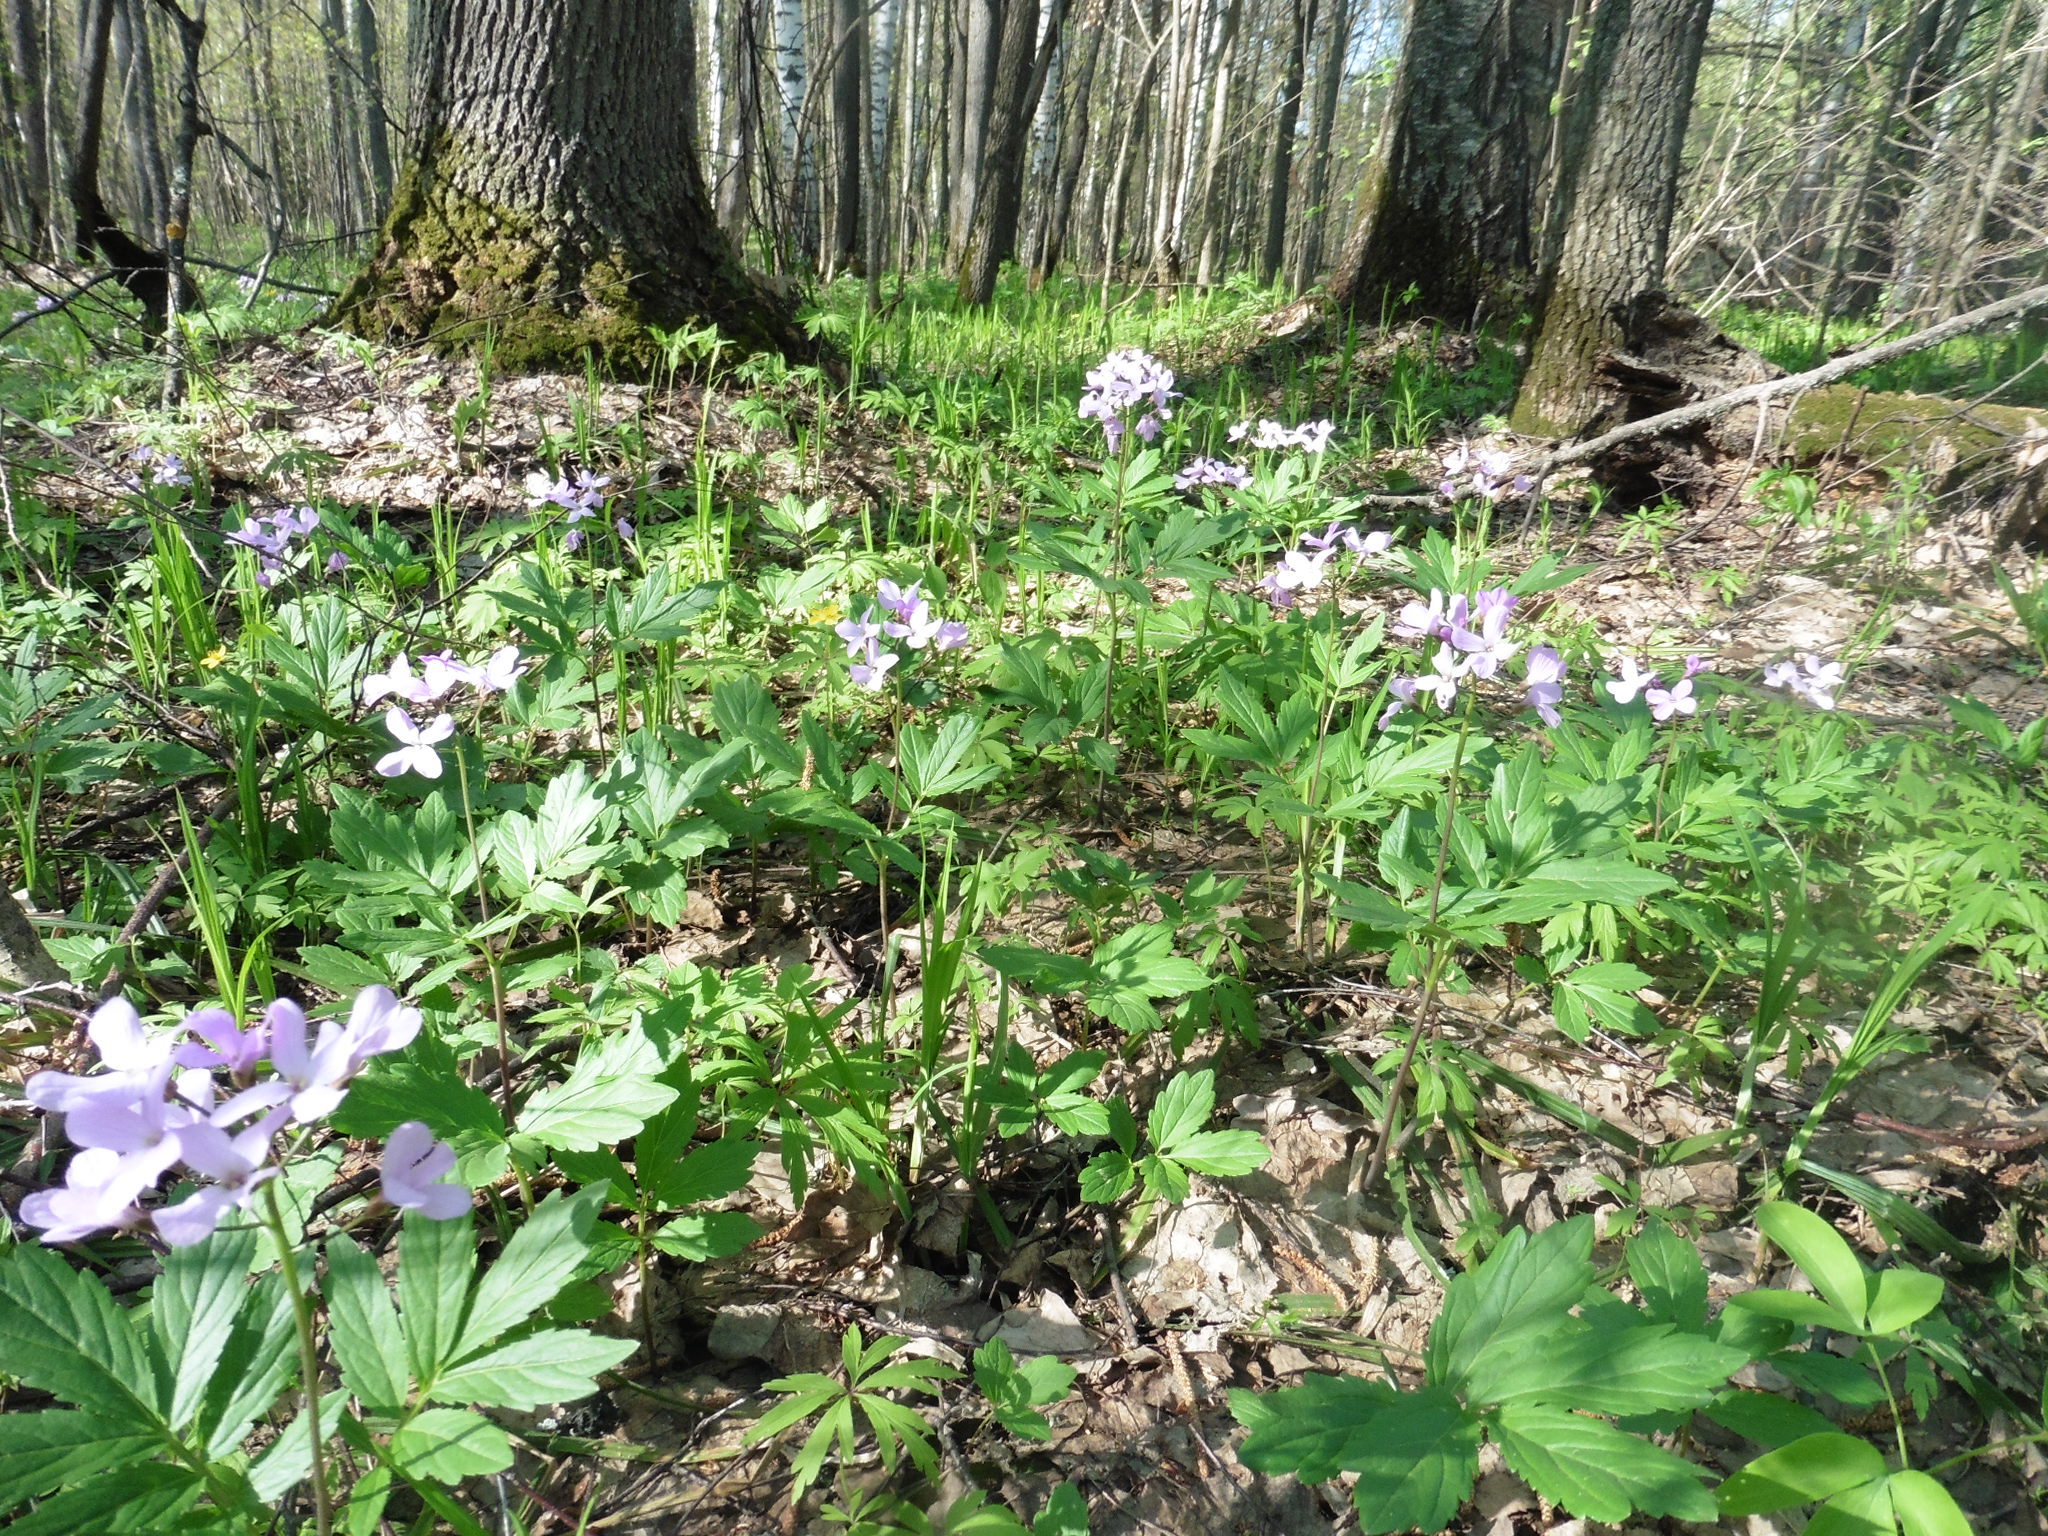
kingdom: Plantae
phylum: Tracheophyta
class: Magnoliopsida
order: Brassicales
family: Brassicaceae
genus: Cardamine
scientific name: Cardamine quinquefolia
